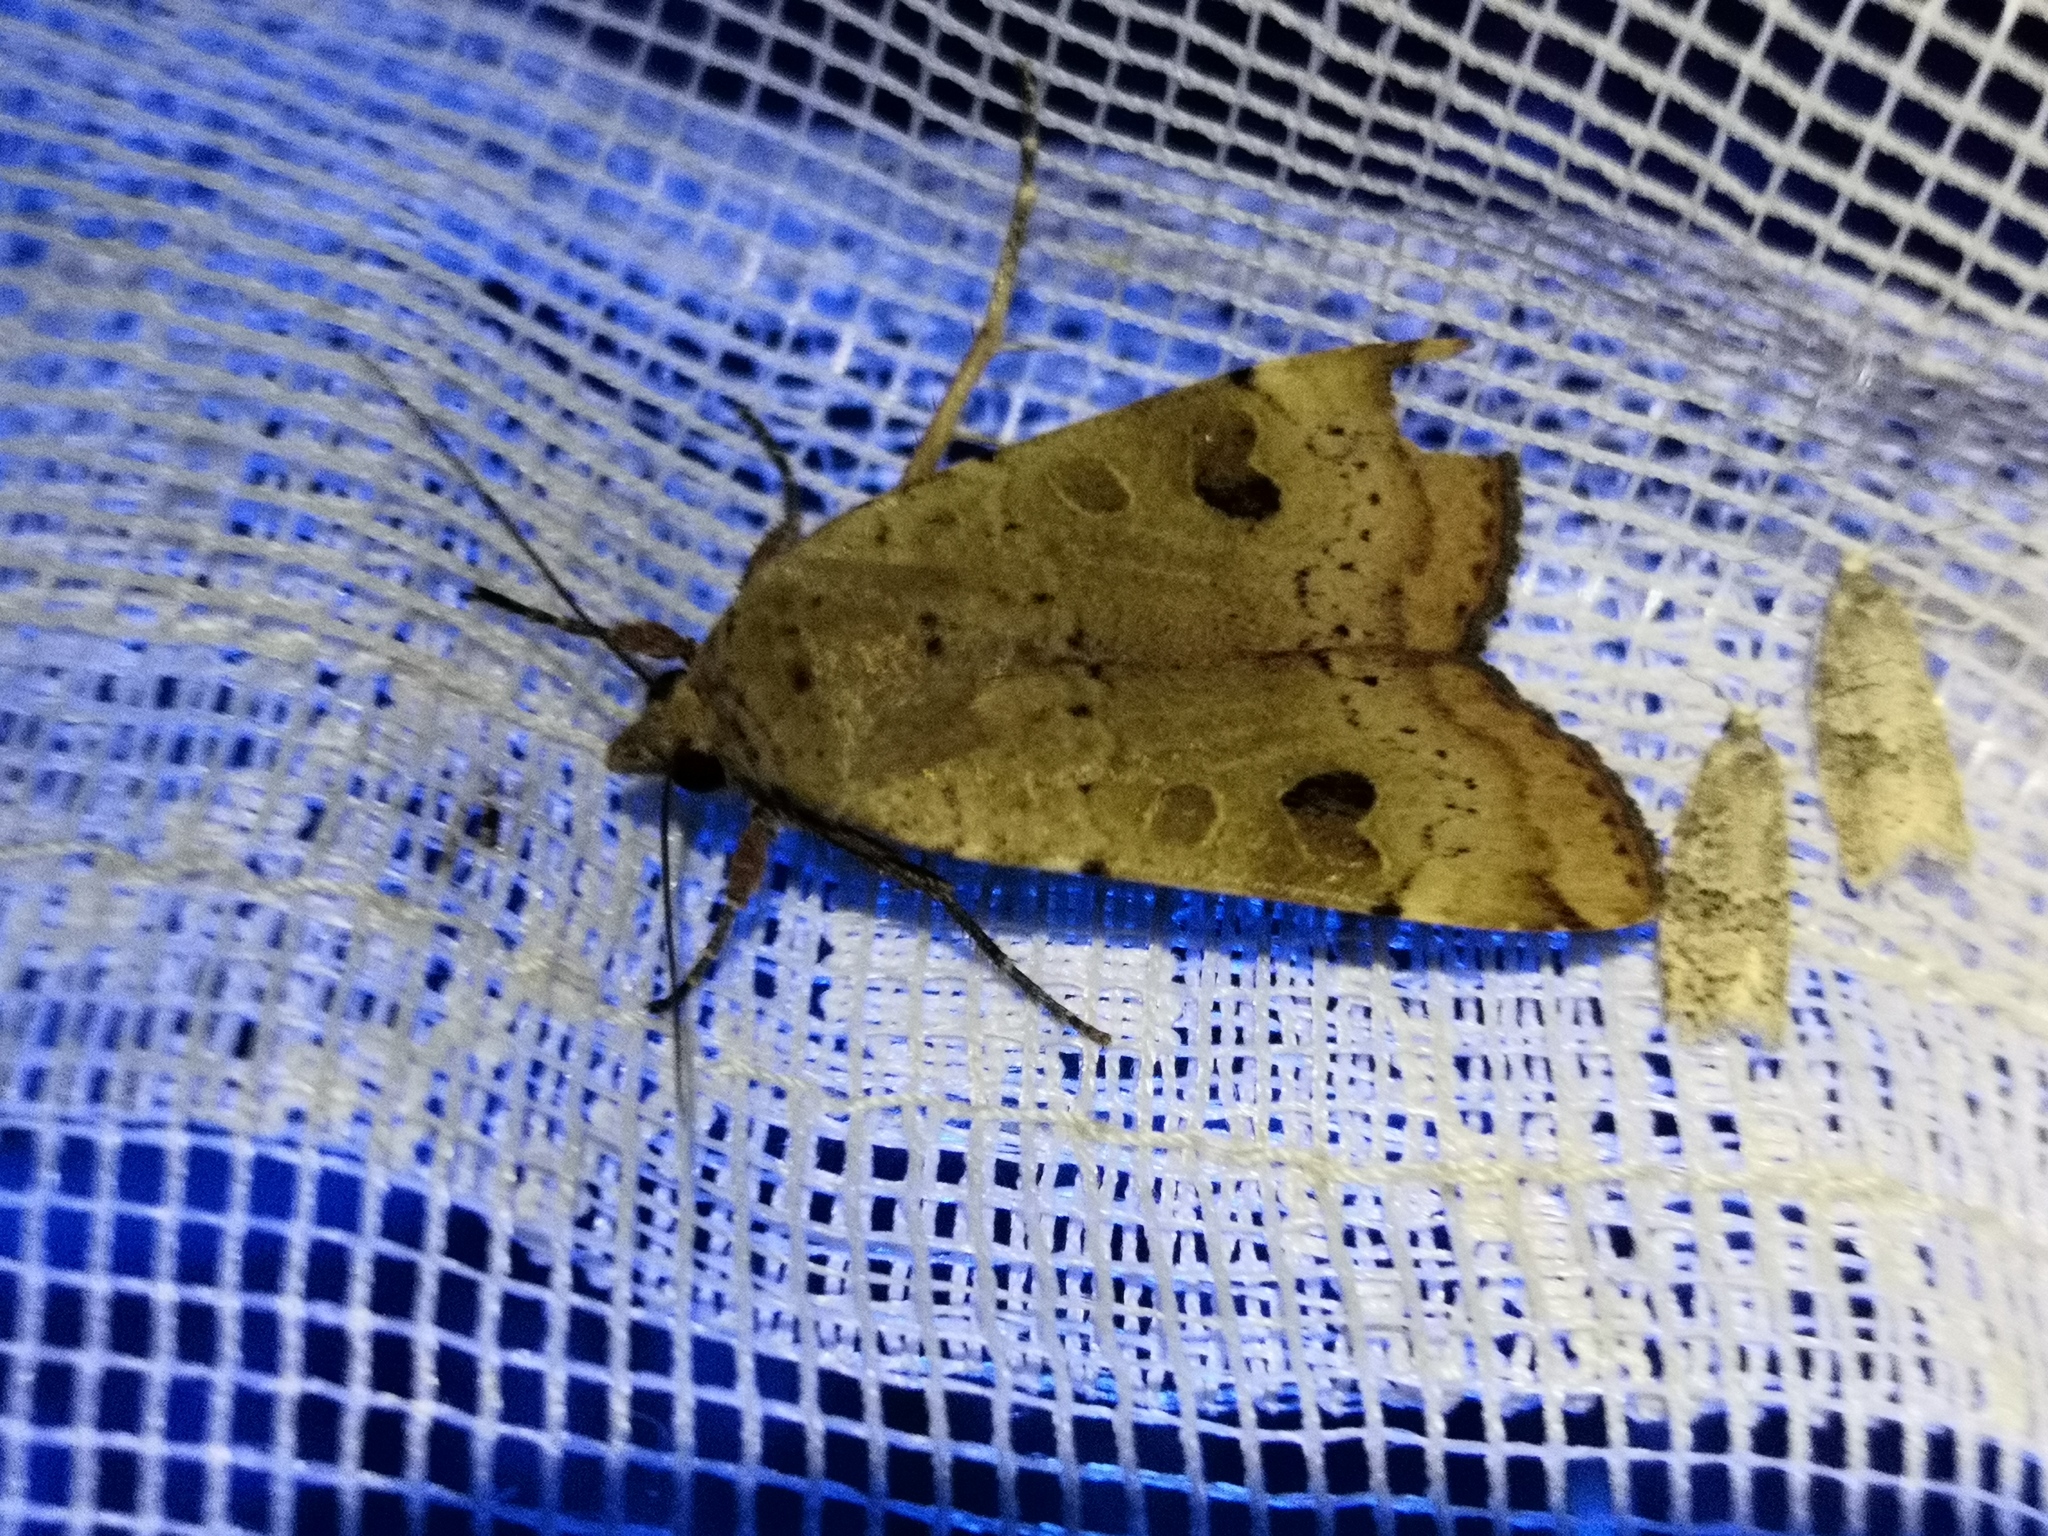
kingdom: Animalia
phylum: Arthropoda
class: Insecta
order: Lepidoptera
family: Noctuidae
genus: Noctua
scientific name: Noctua interposita
